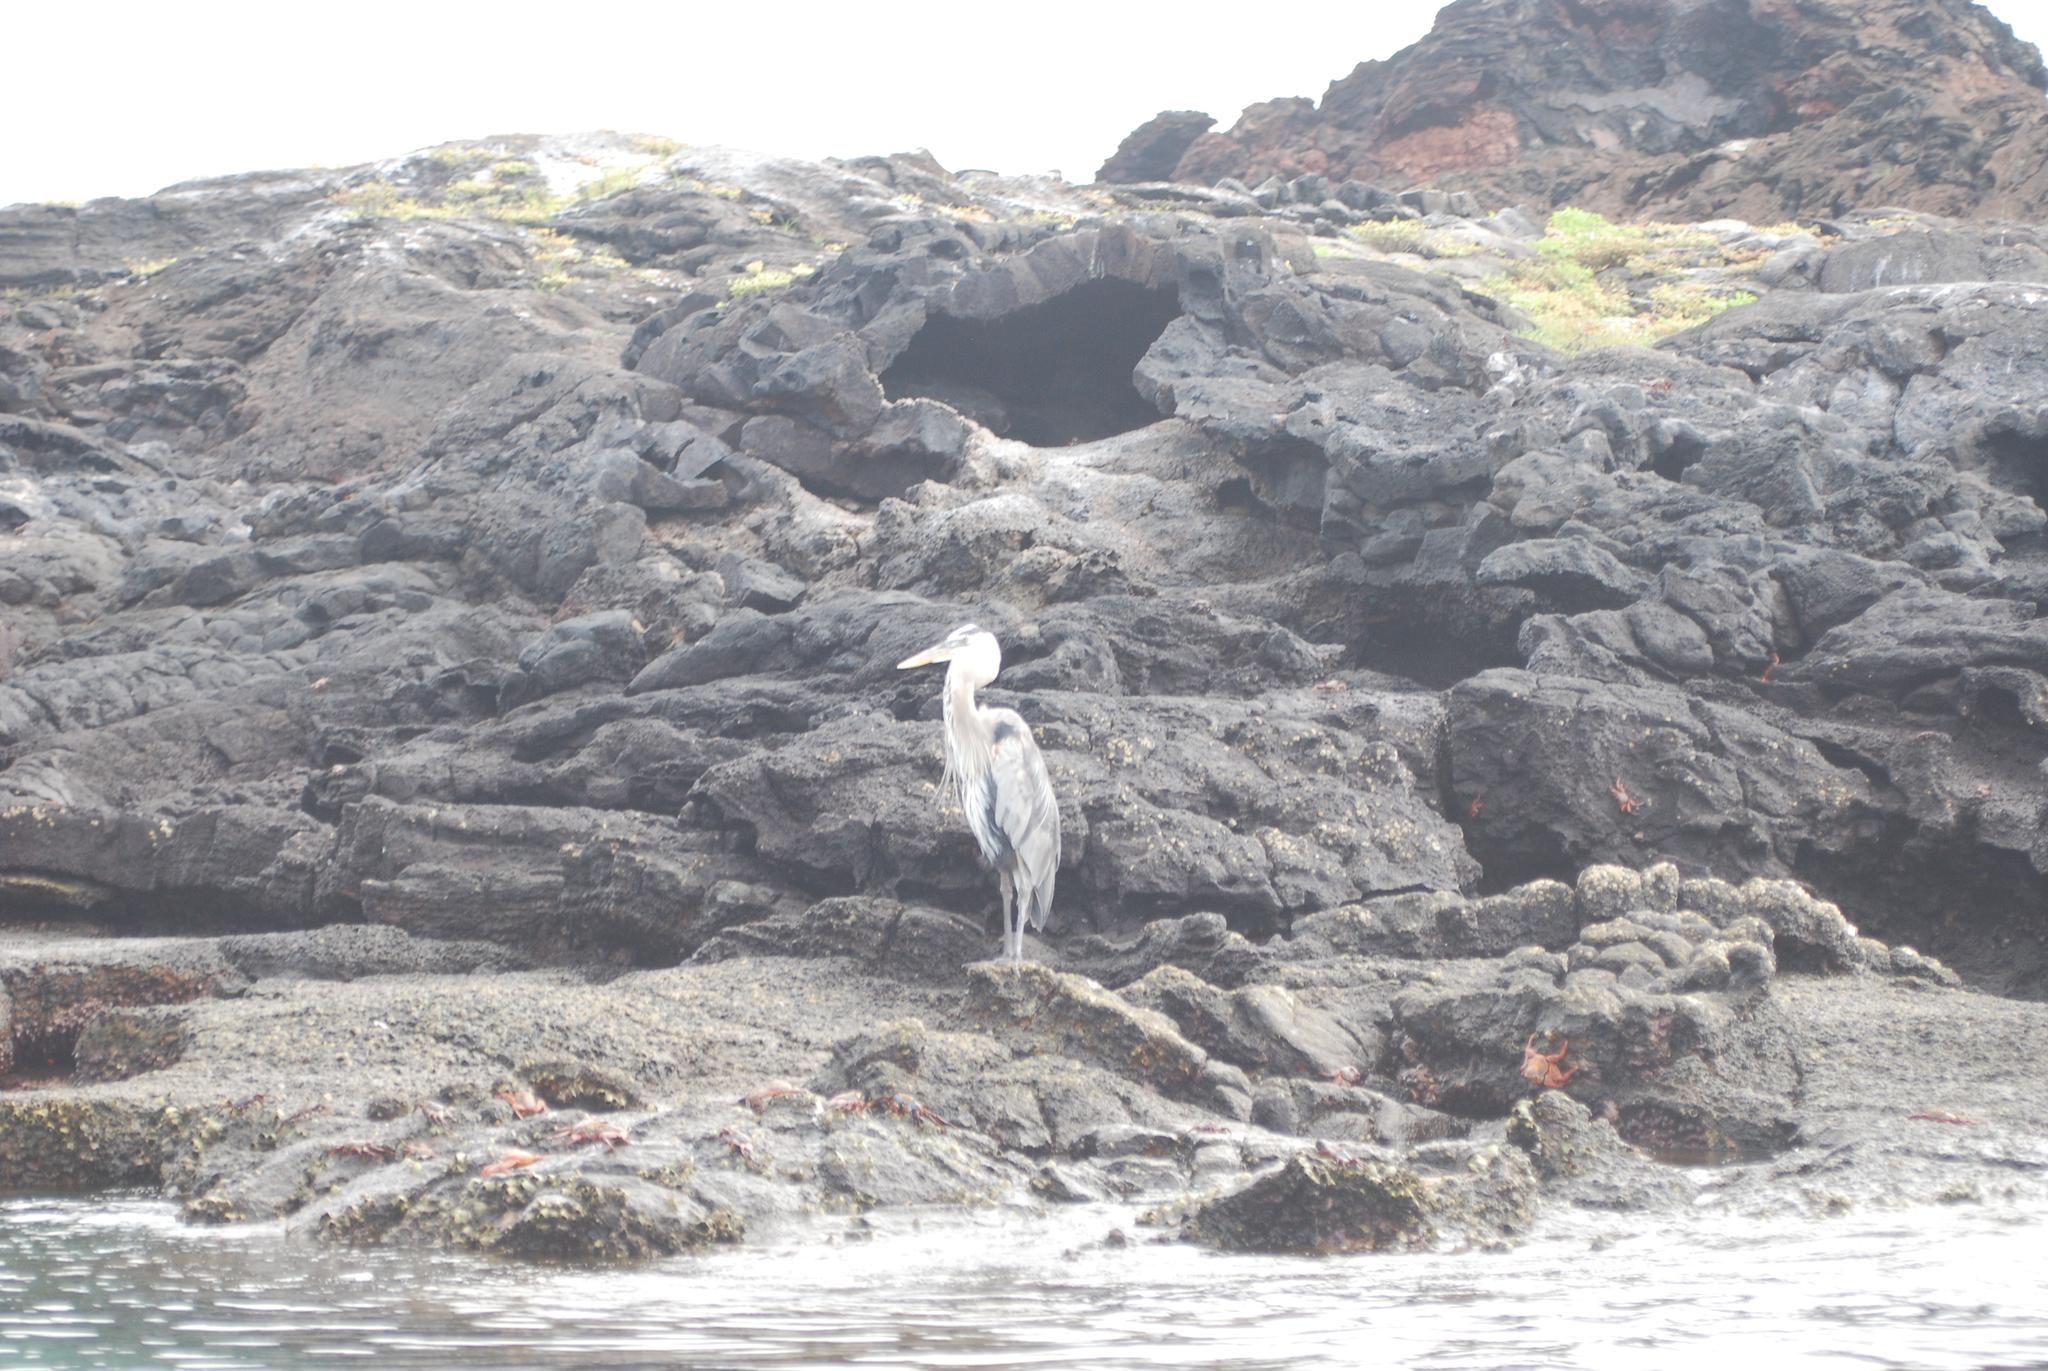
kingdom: Animalia
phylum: Chordata
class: Aves
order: Pelecaniformes
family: Ardeidae
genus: Ardea
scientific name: Ardea herodias
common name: Great blue heron
